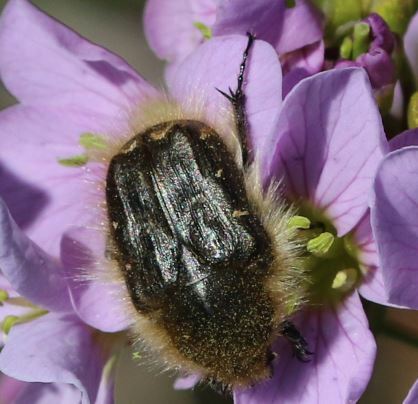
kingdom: Animalia
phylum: Arthropoda
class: Insecta
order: Coleoptera
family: Scarabaeidae
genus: Tropinota
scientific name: Tropinota hirta
